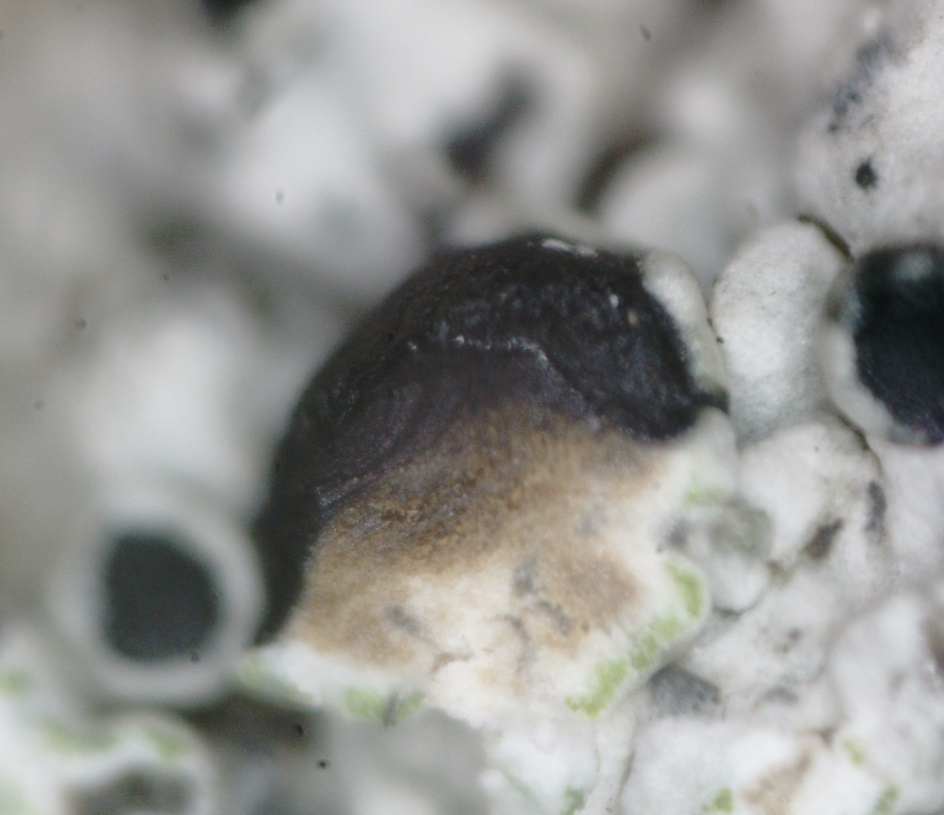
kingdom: Fungi
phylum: Ascomycota
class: Lecanoromycetes
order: Lecanorales
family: Tephromelataceae
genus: Tephromela
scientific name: Tephromela atra
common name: Black shields
